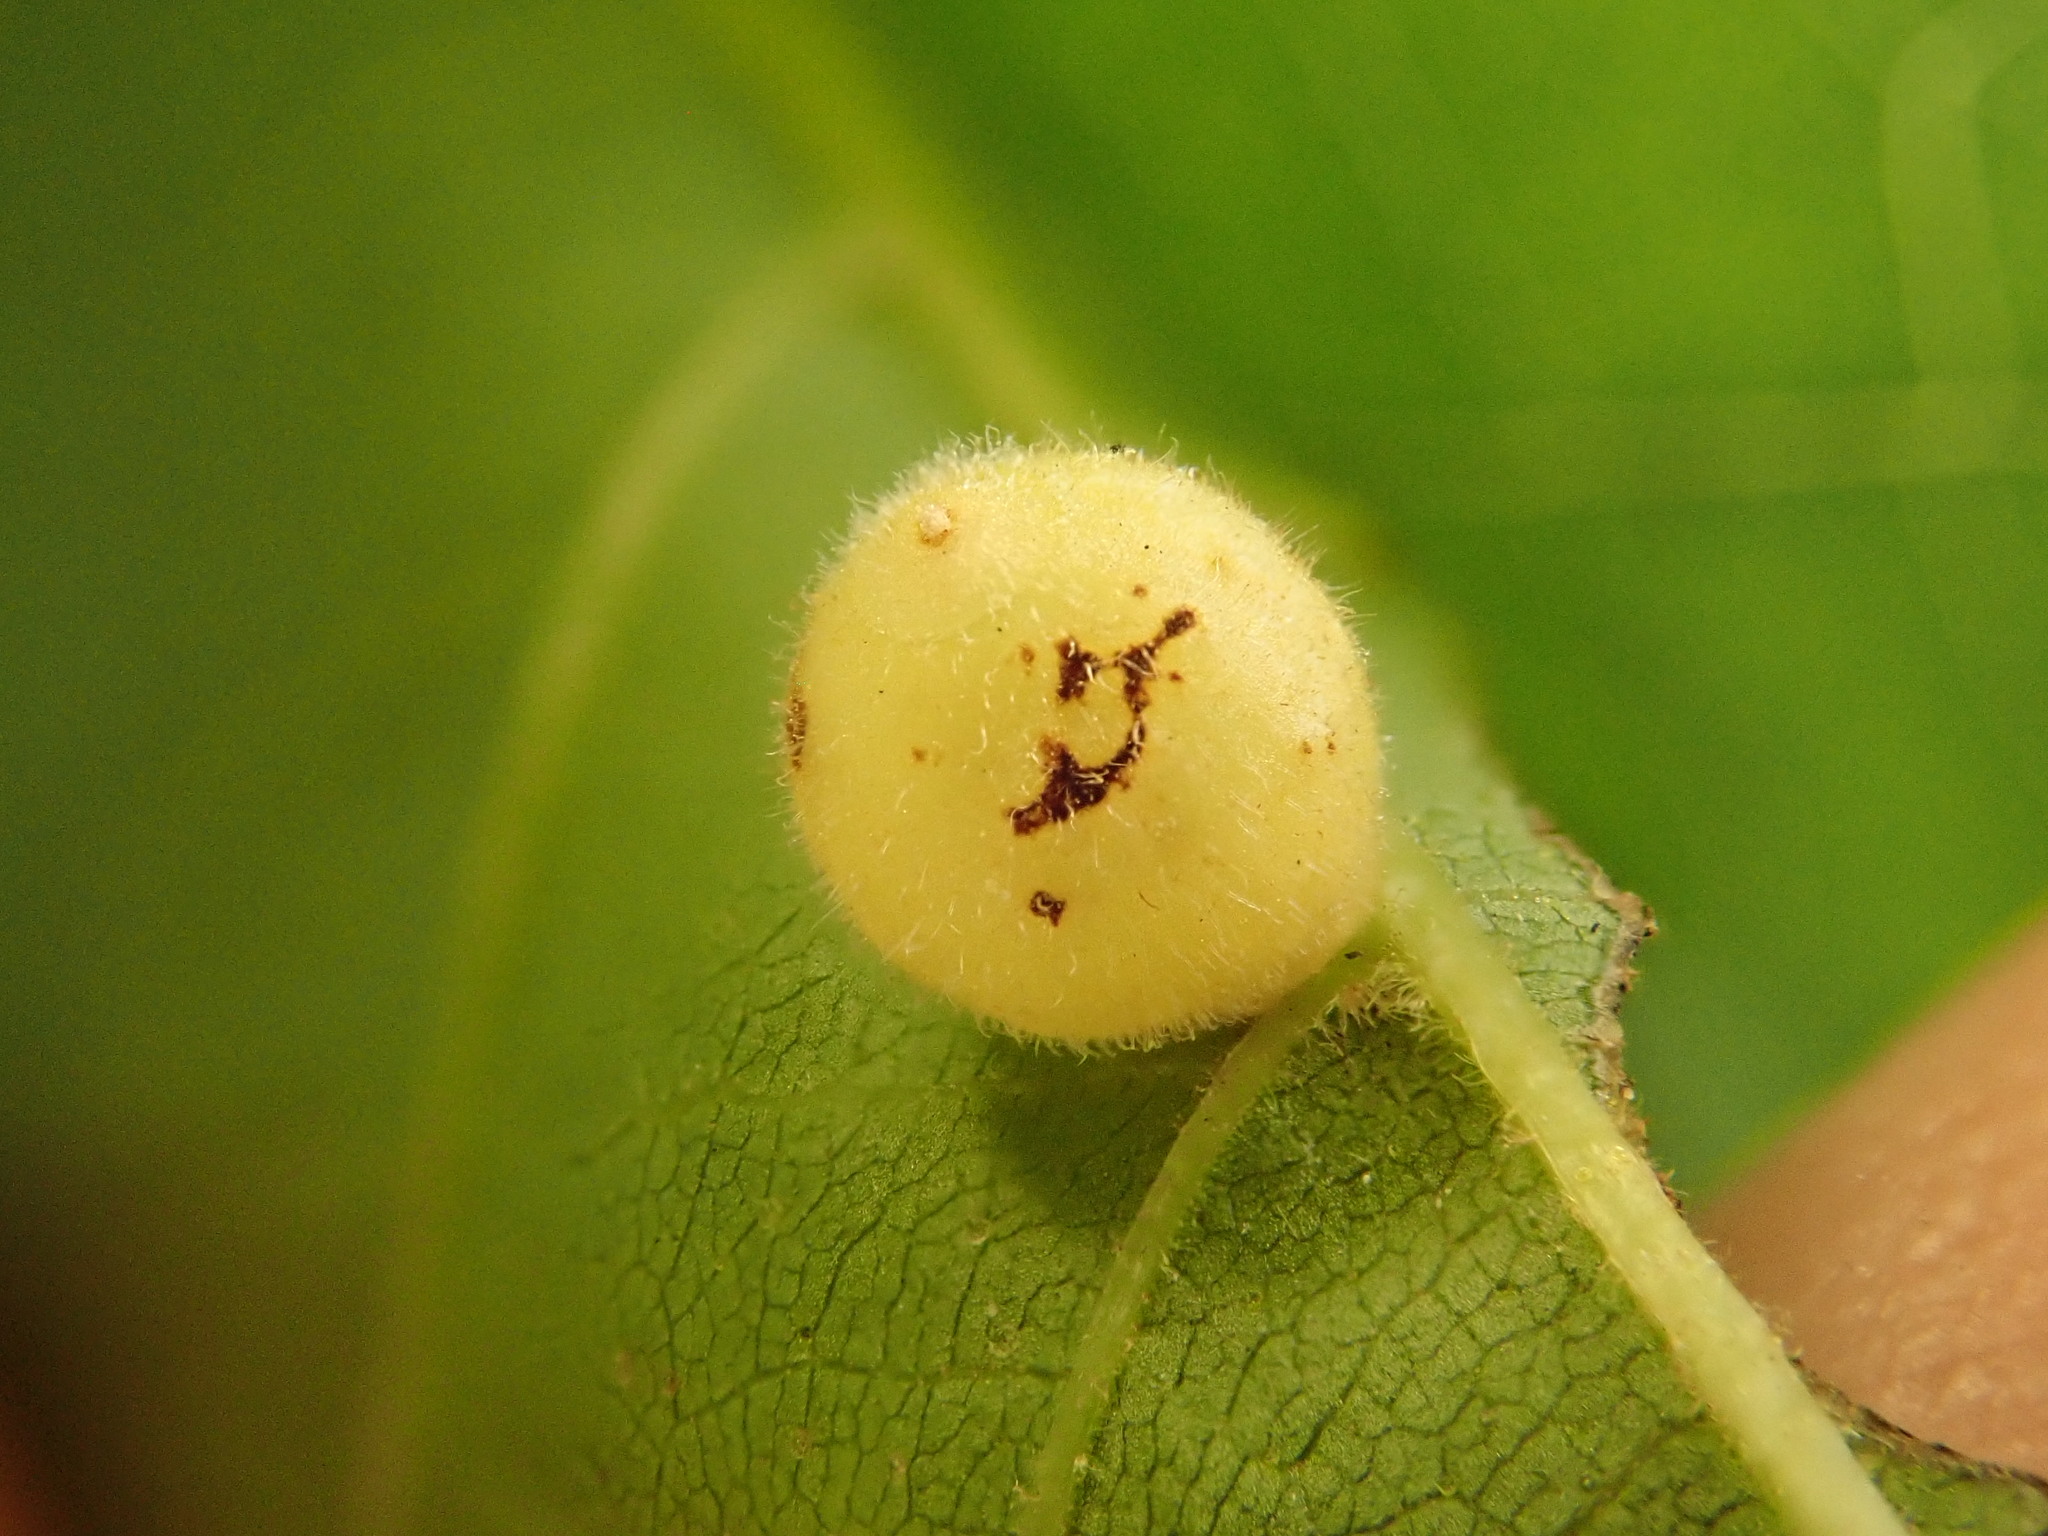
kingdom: Animalia
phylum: Arthropoda
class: Insecta
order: Diptera
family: Cecidomyiidae
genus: Caryomyia
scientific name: Caryomyia cilidolium
